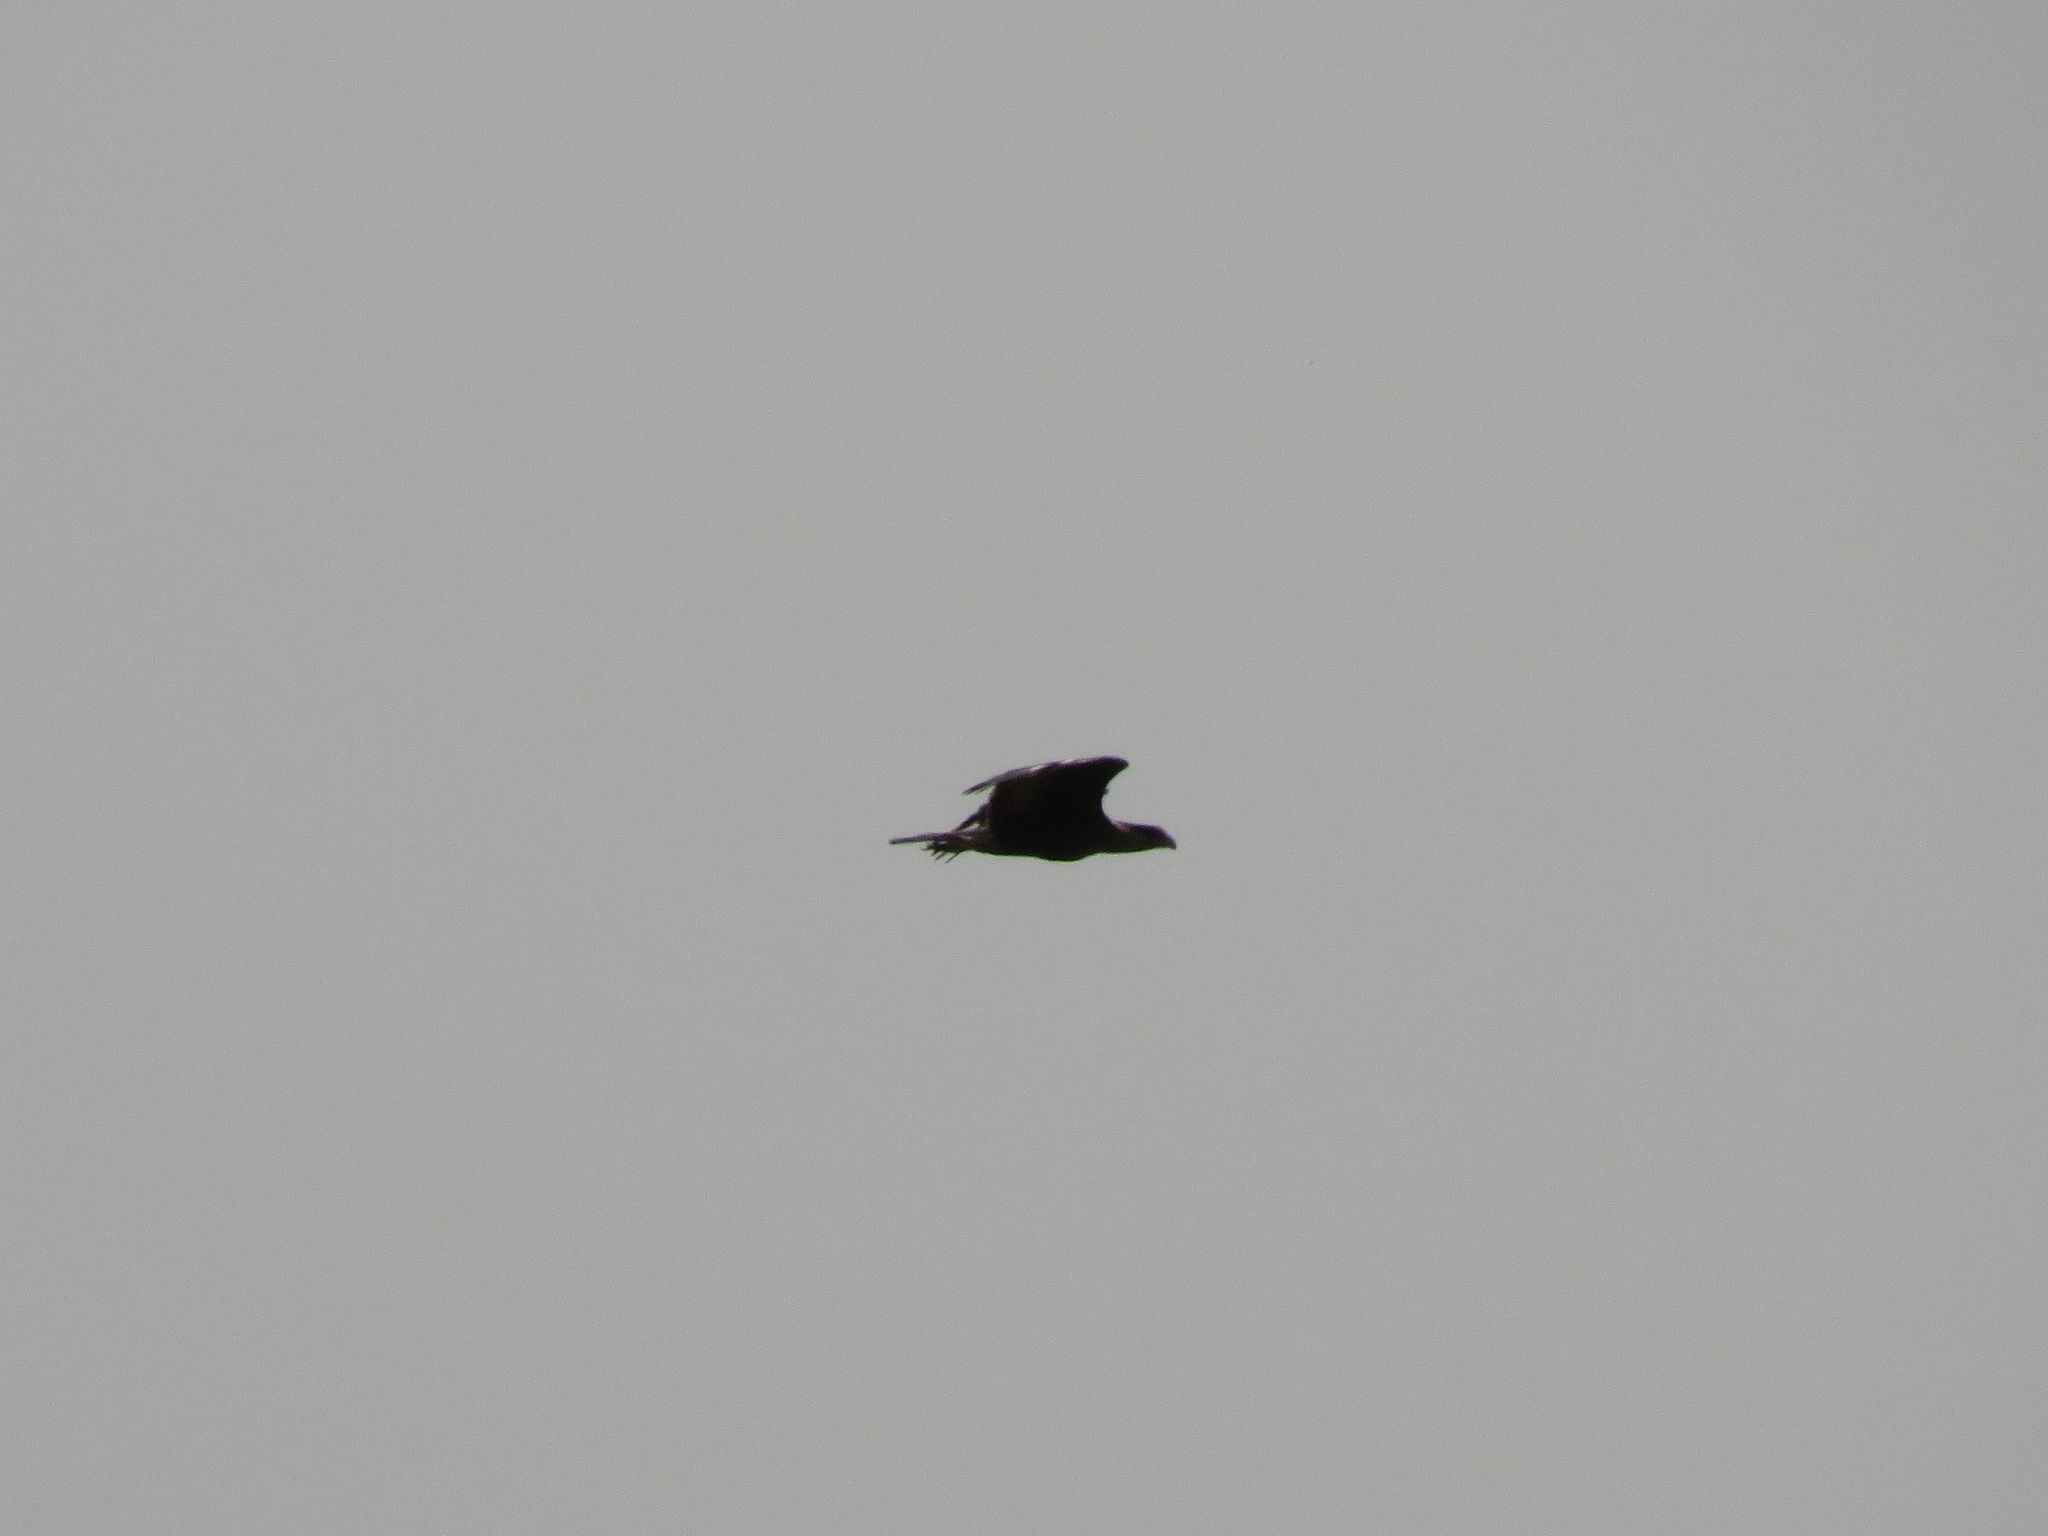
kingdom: Animalia
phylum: Chordata
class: Aves
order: Falconiformes
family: Falconidae
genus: Caracara
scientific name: Caracara plancus
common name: Southern caracara
